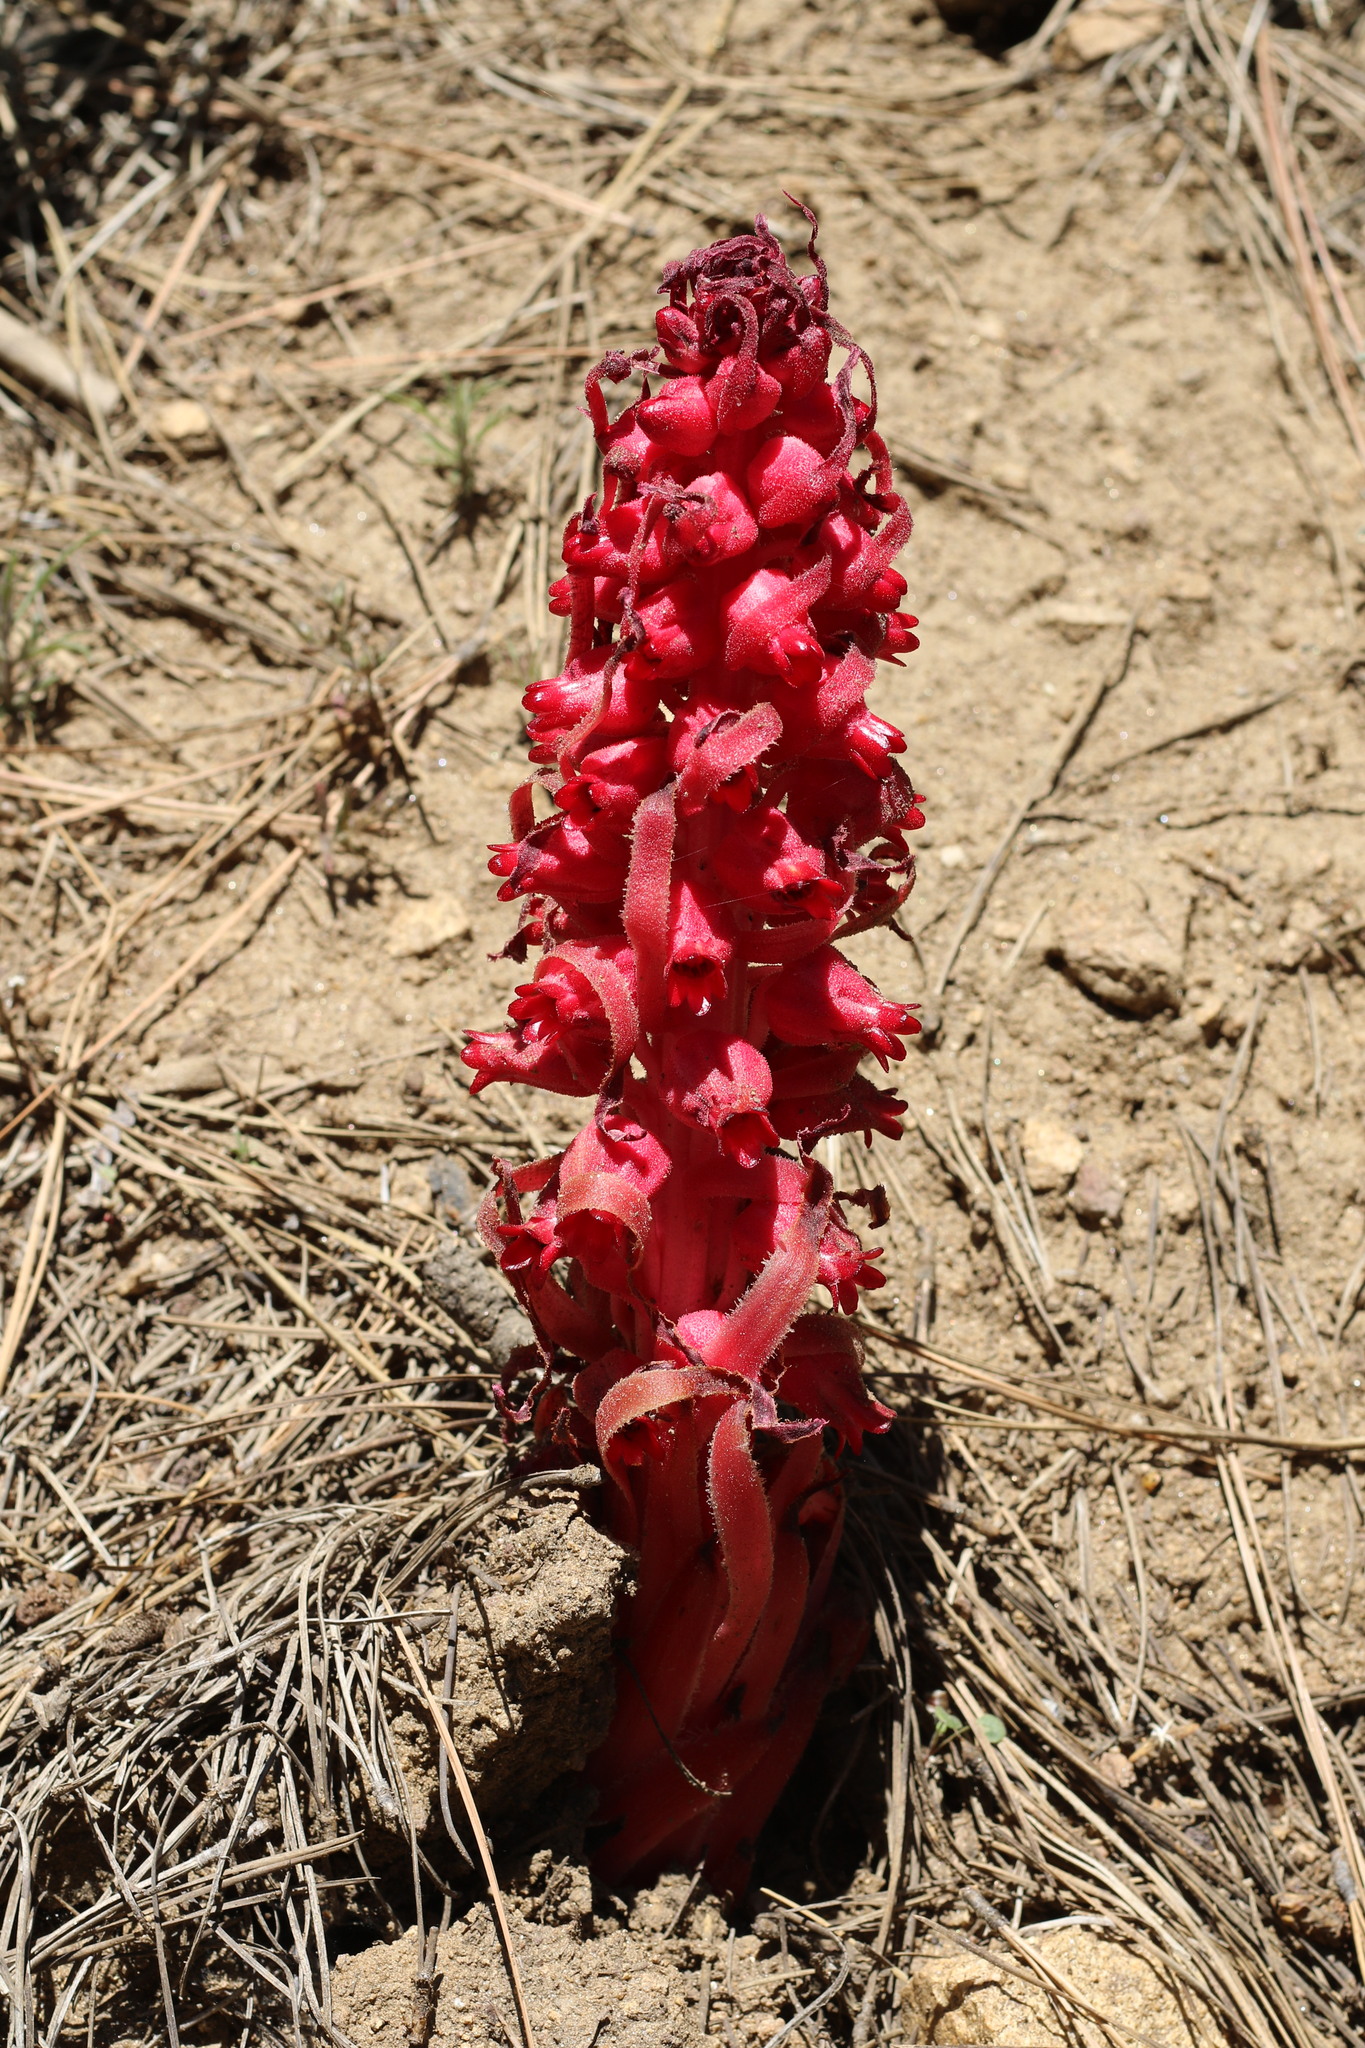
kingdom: Plantae
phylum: Tracheophyta
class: Magnoliopsida
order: Ericales
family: Ericaceae
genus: Sarcodes
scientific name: Sarcodes sanguinea
